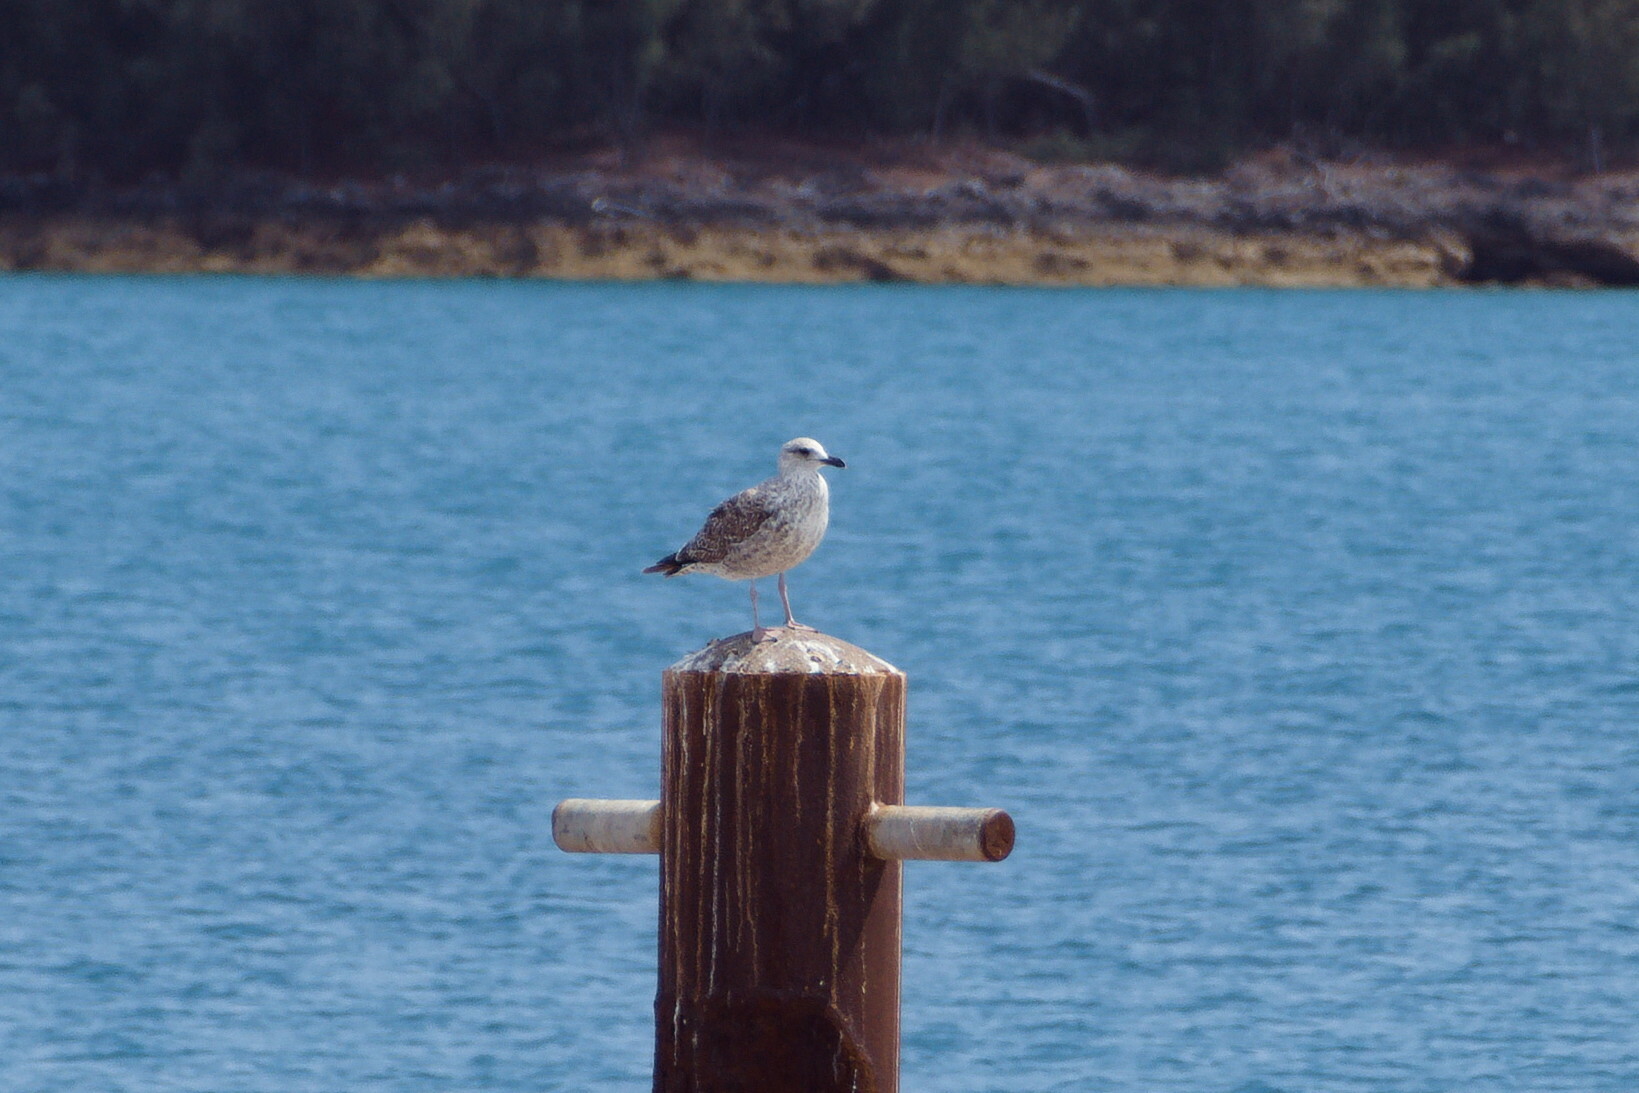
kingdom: Animalia
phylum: Chordata
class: Aves
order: Charadriiformes
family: Laridae
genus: Larus
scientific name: Larus fuscus
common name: Lesser black-backed gull
